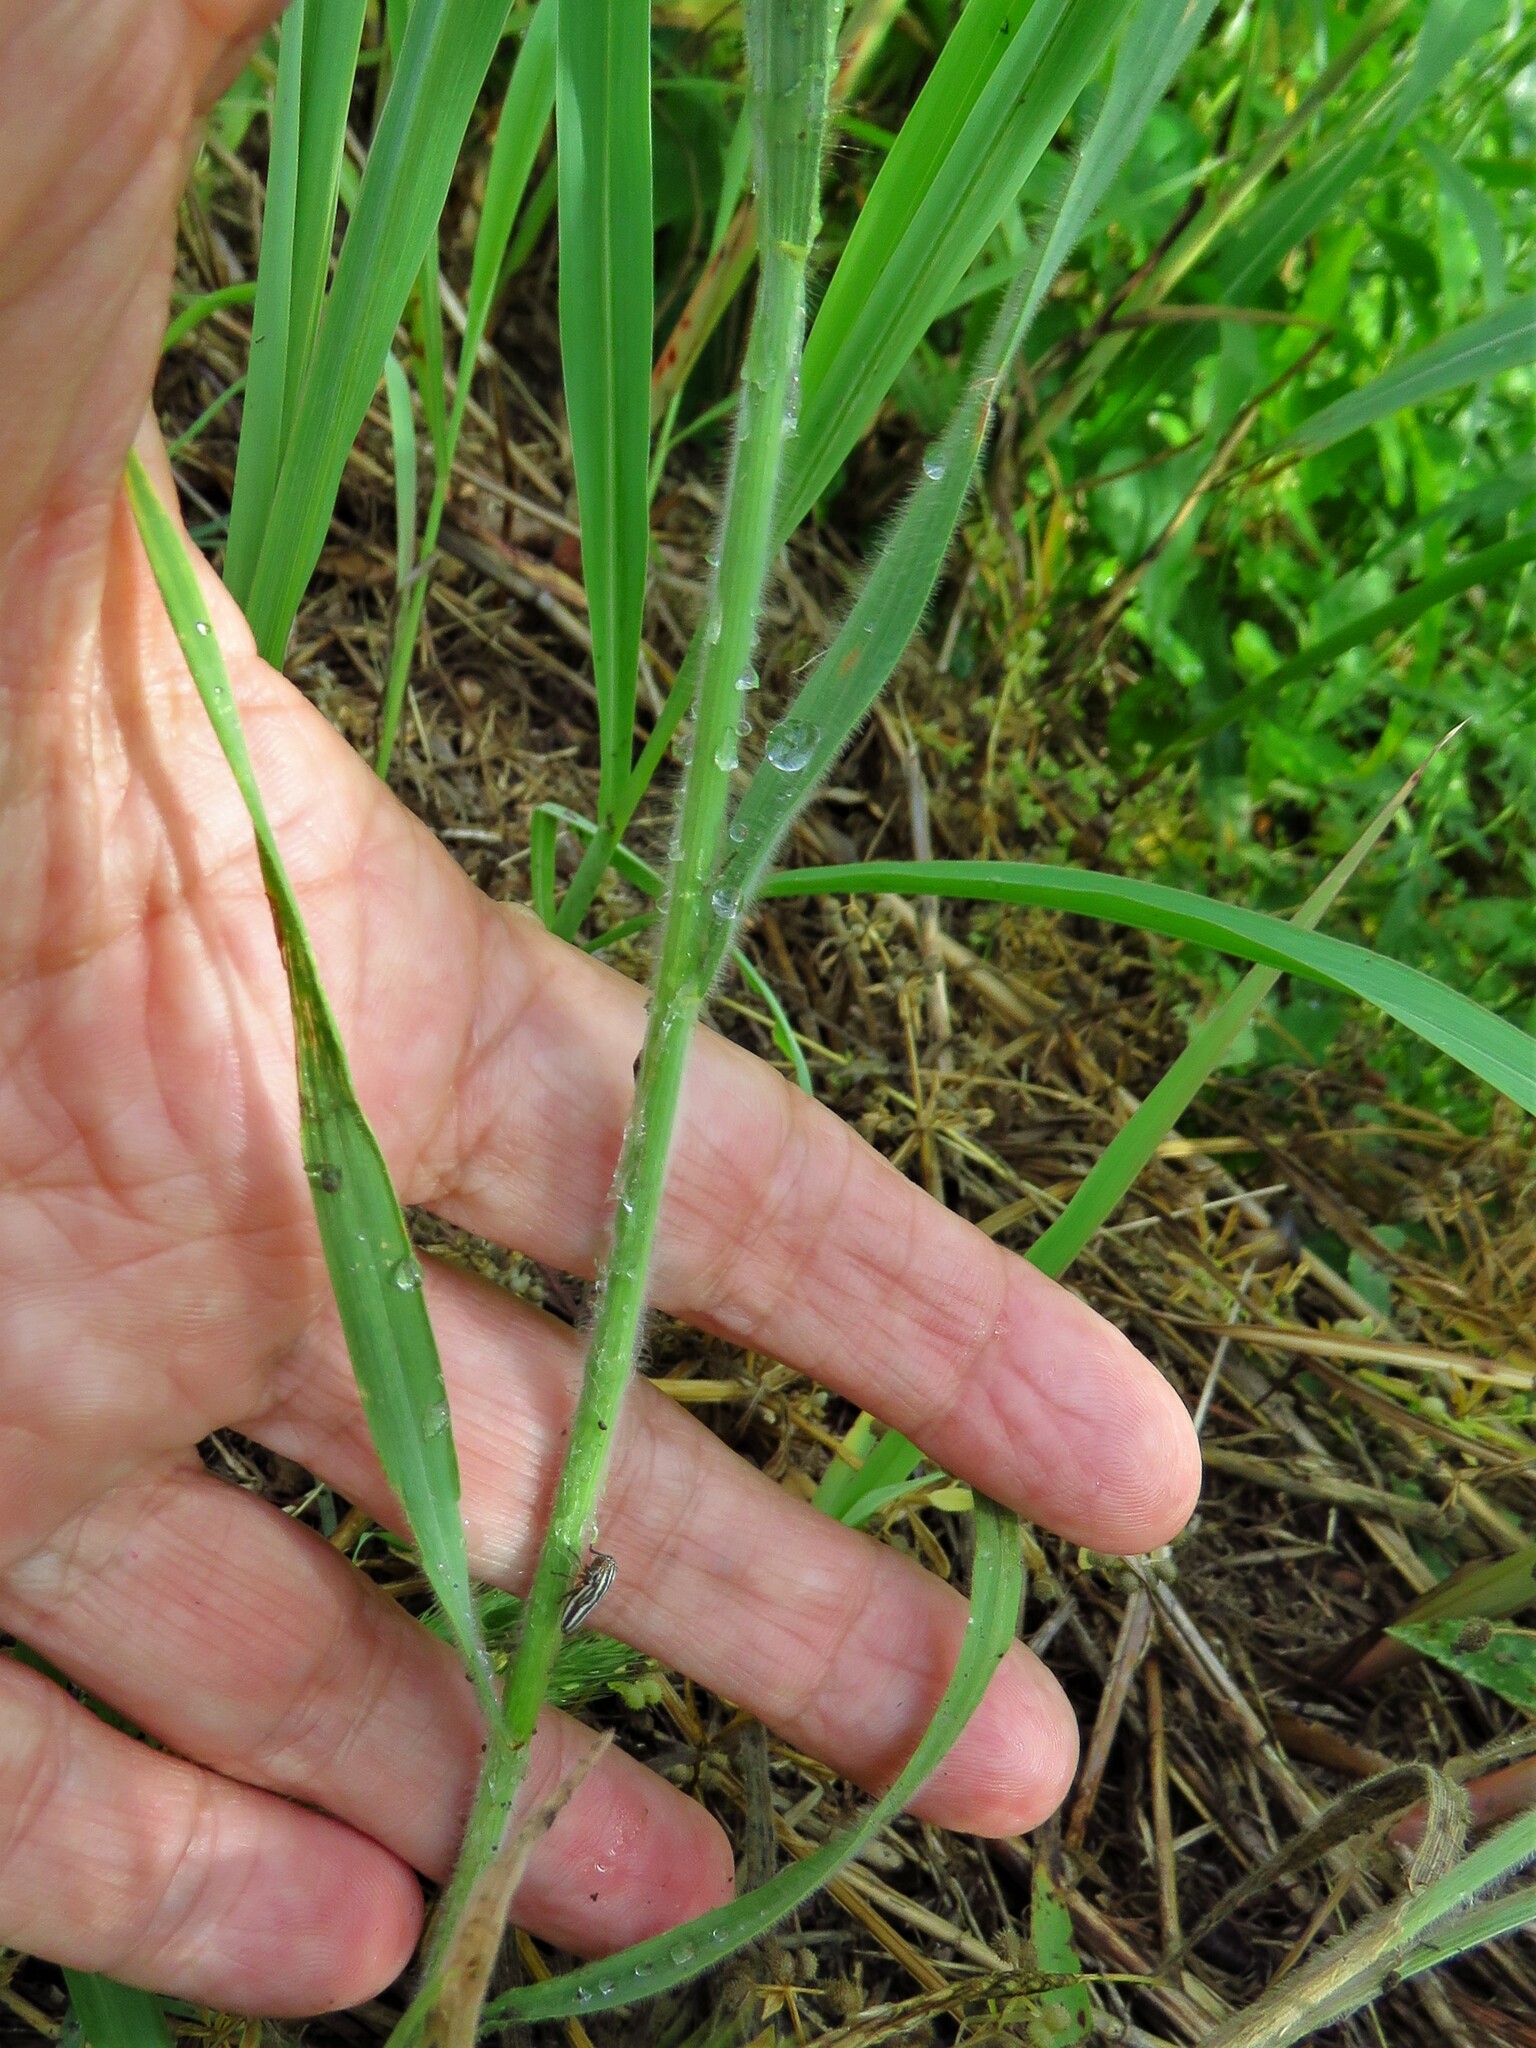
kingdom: Plantae
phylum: Tracheophyta
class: Liliopsida
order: Poales
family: Poaceae
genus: Bromus
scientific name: Bromus japonicus
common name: Japanese brome
